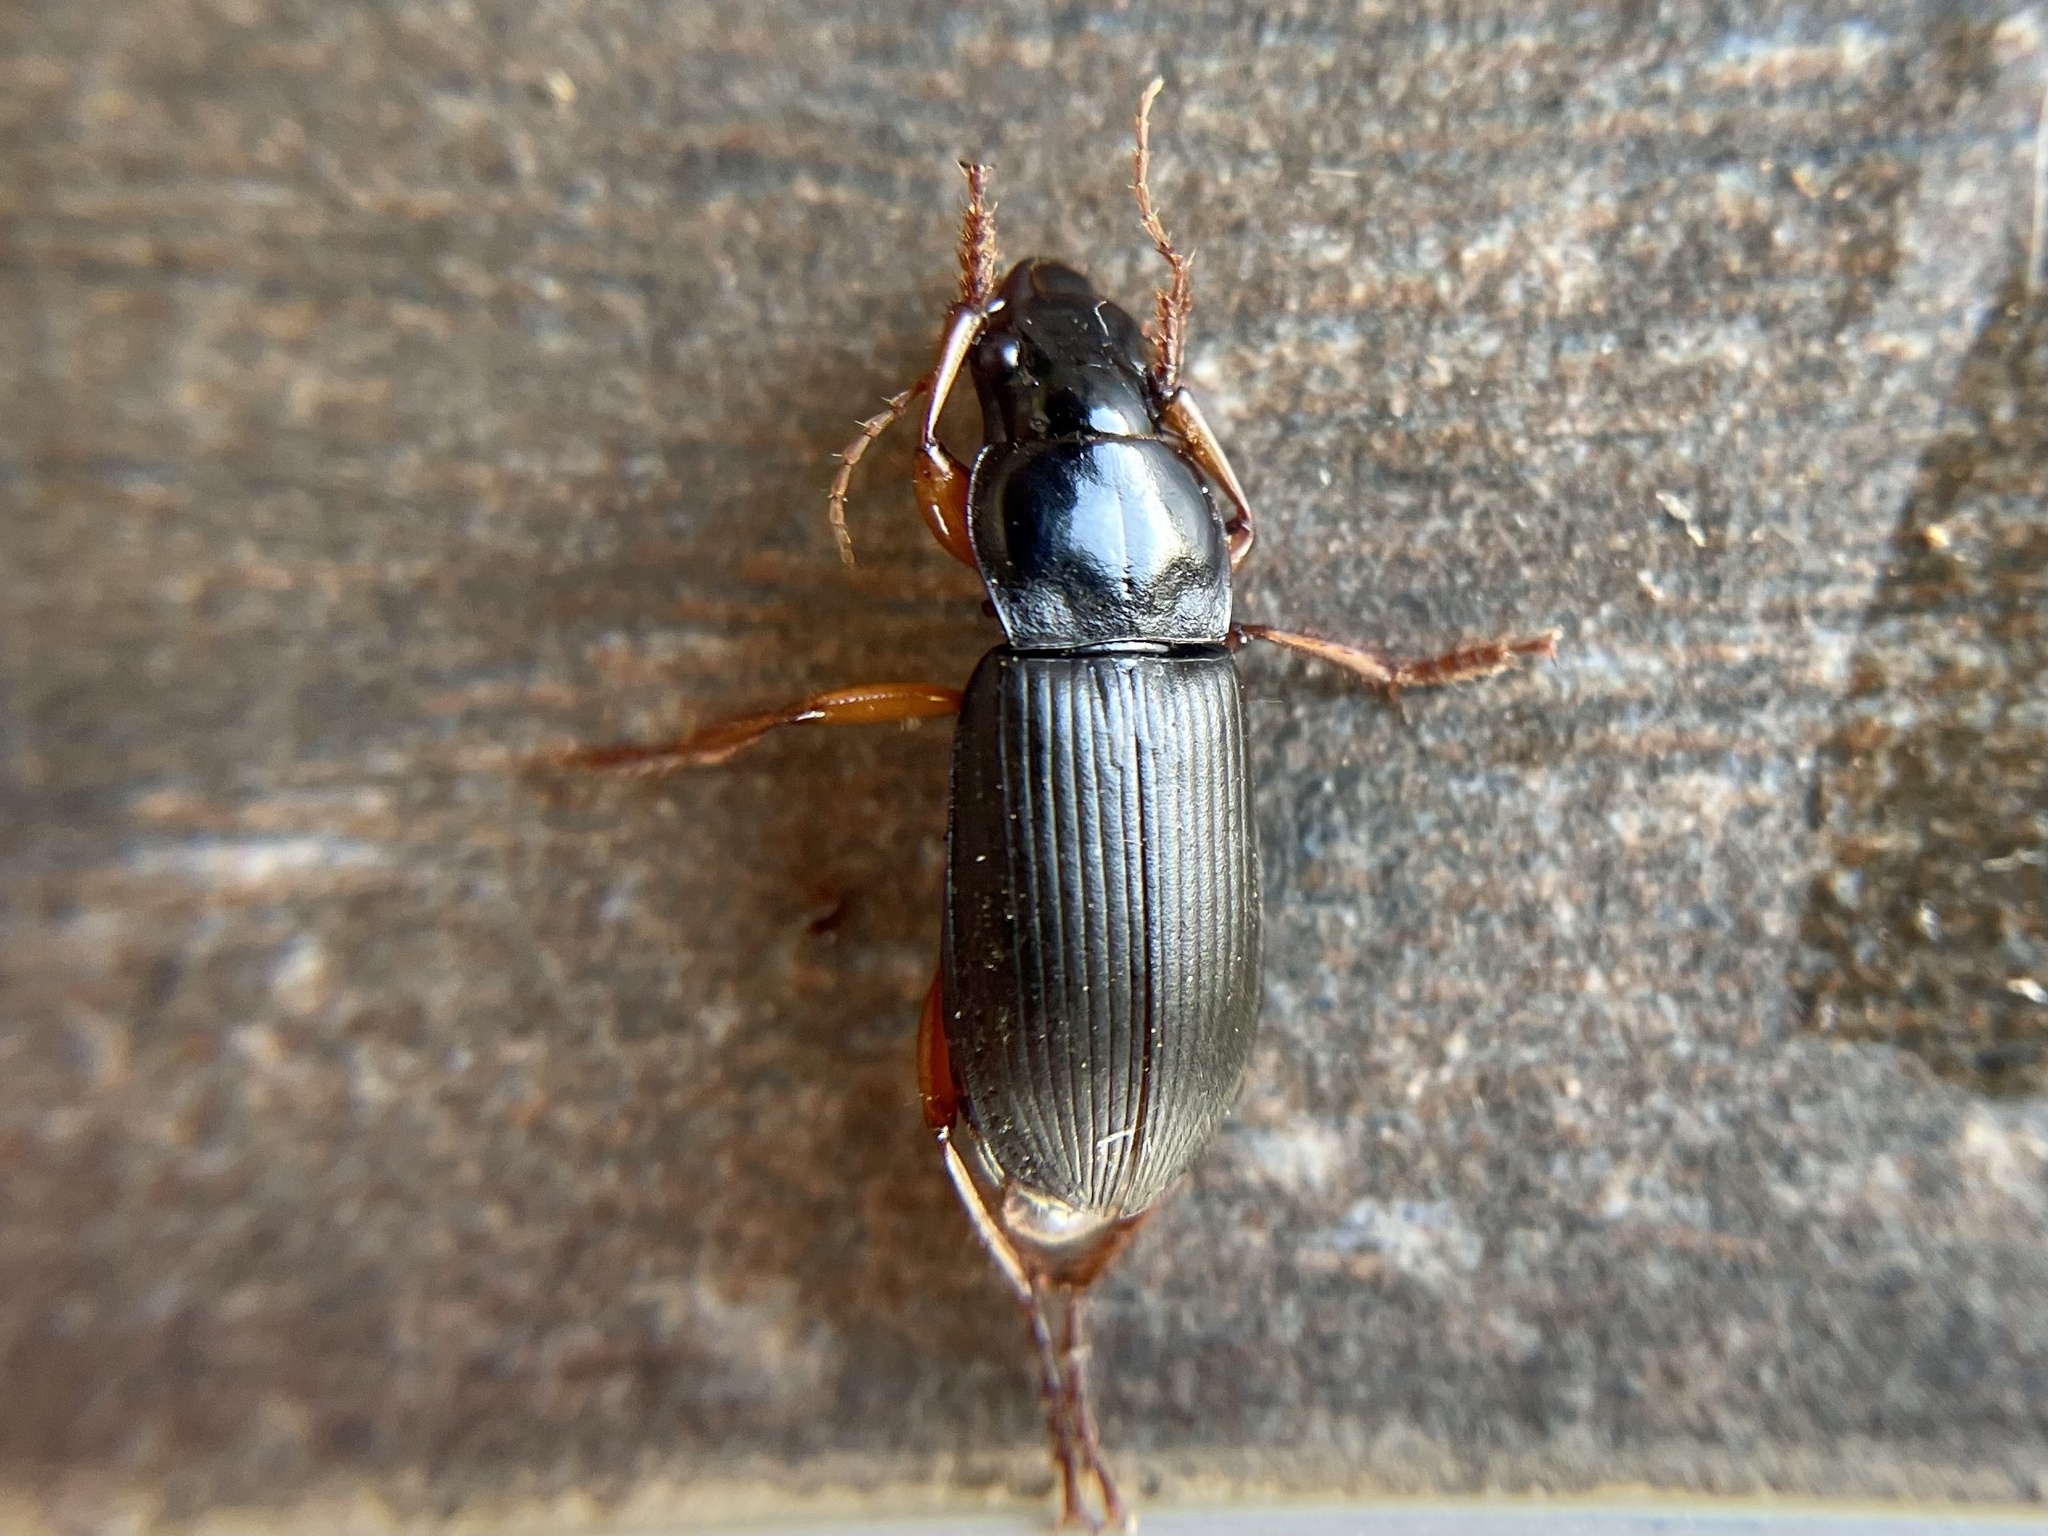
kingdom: Animalia
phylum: Arthropoda
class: Insecta
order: Coleoptera
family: Carabidae
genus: Harpalus
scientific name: Harpalus rufipes
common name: Strawberry harp ground beetle
